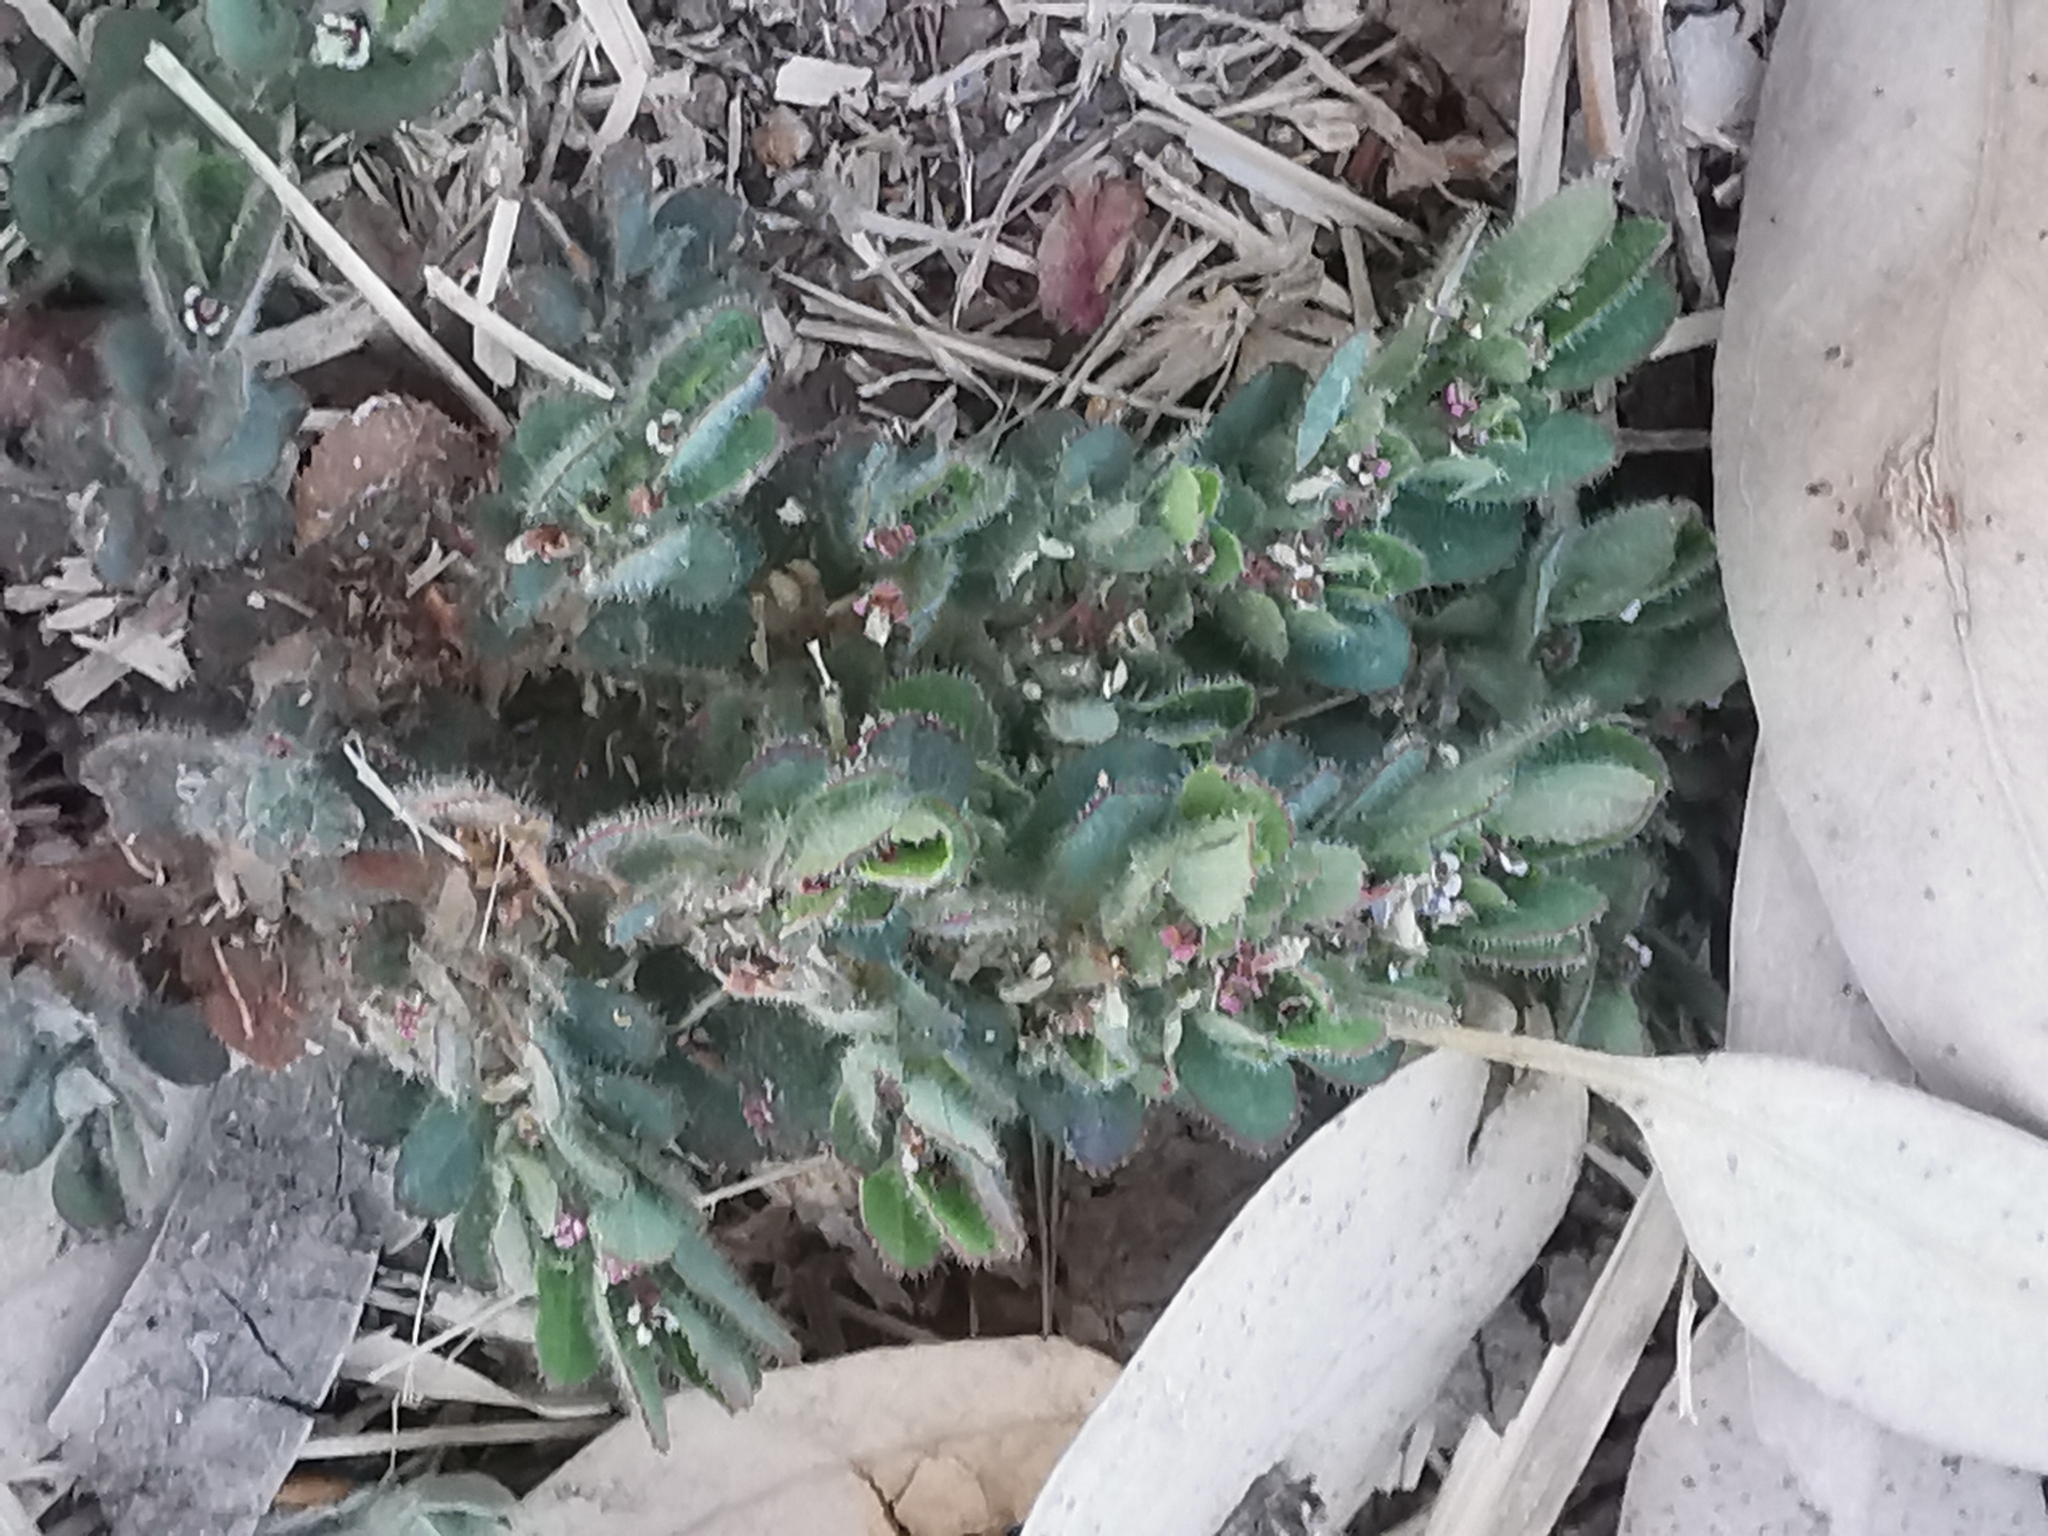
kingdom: Plantae
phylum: Tracheophyta
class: Magnoliopsida
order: Malpighiales
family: Euphorbiaceae
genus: Euphorbia
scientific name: Euphorbia velleriflora
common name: Caliche sandmat
